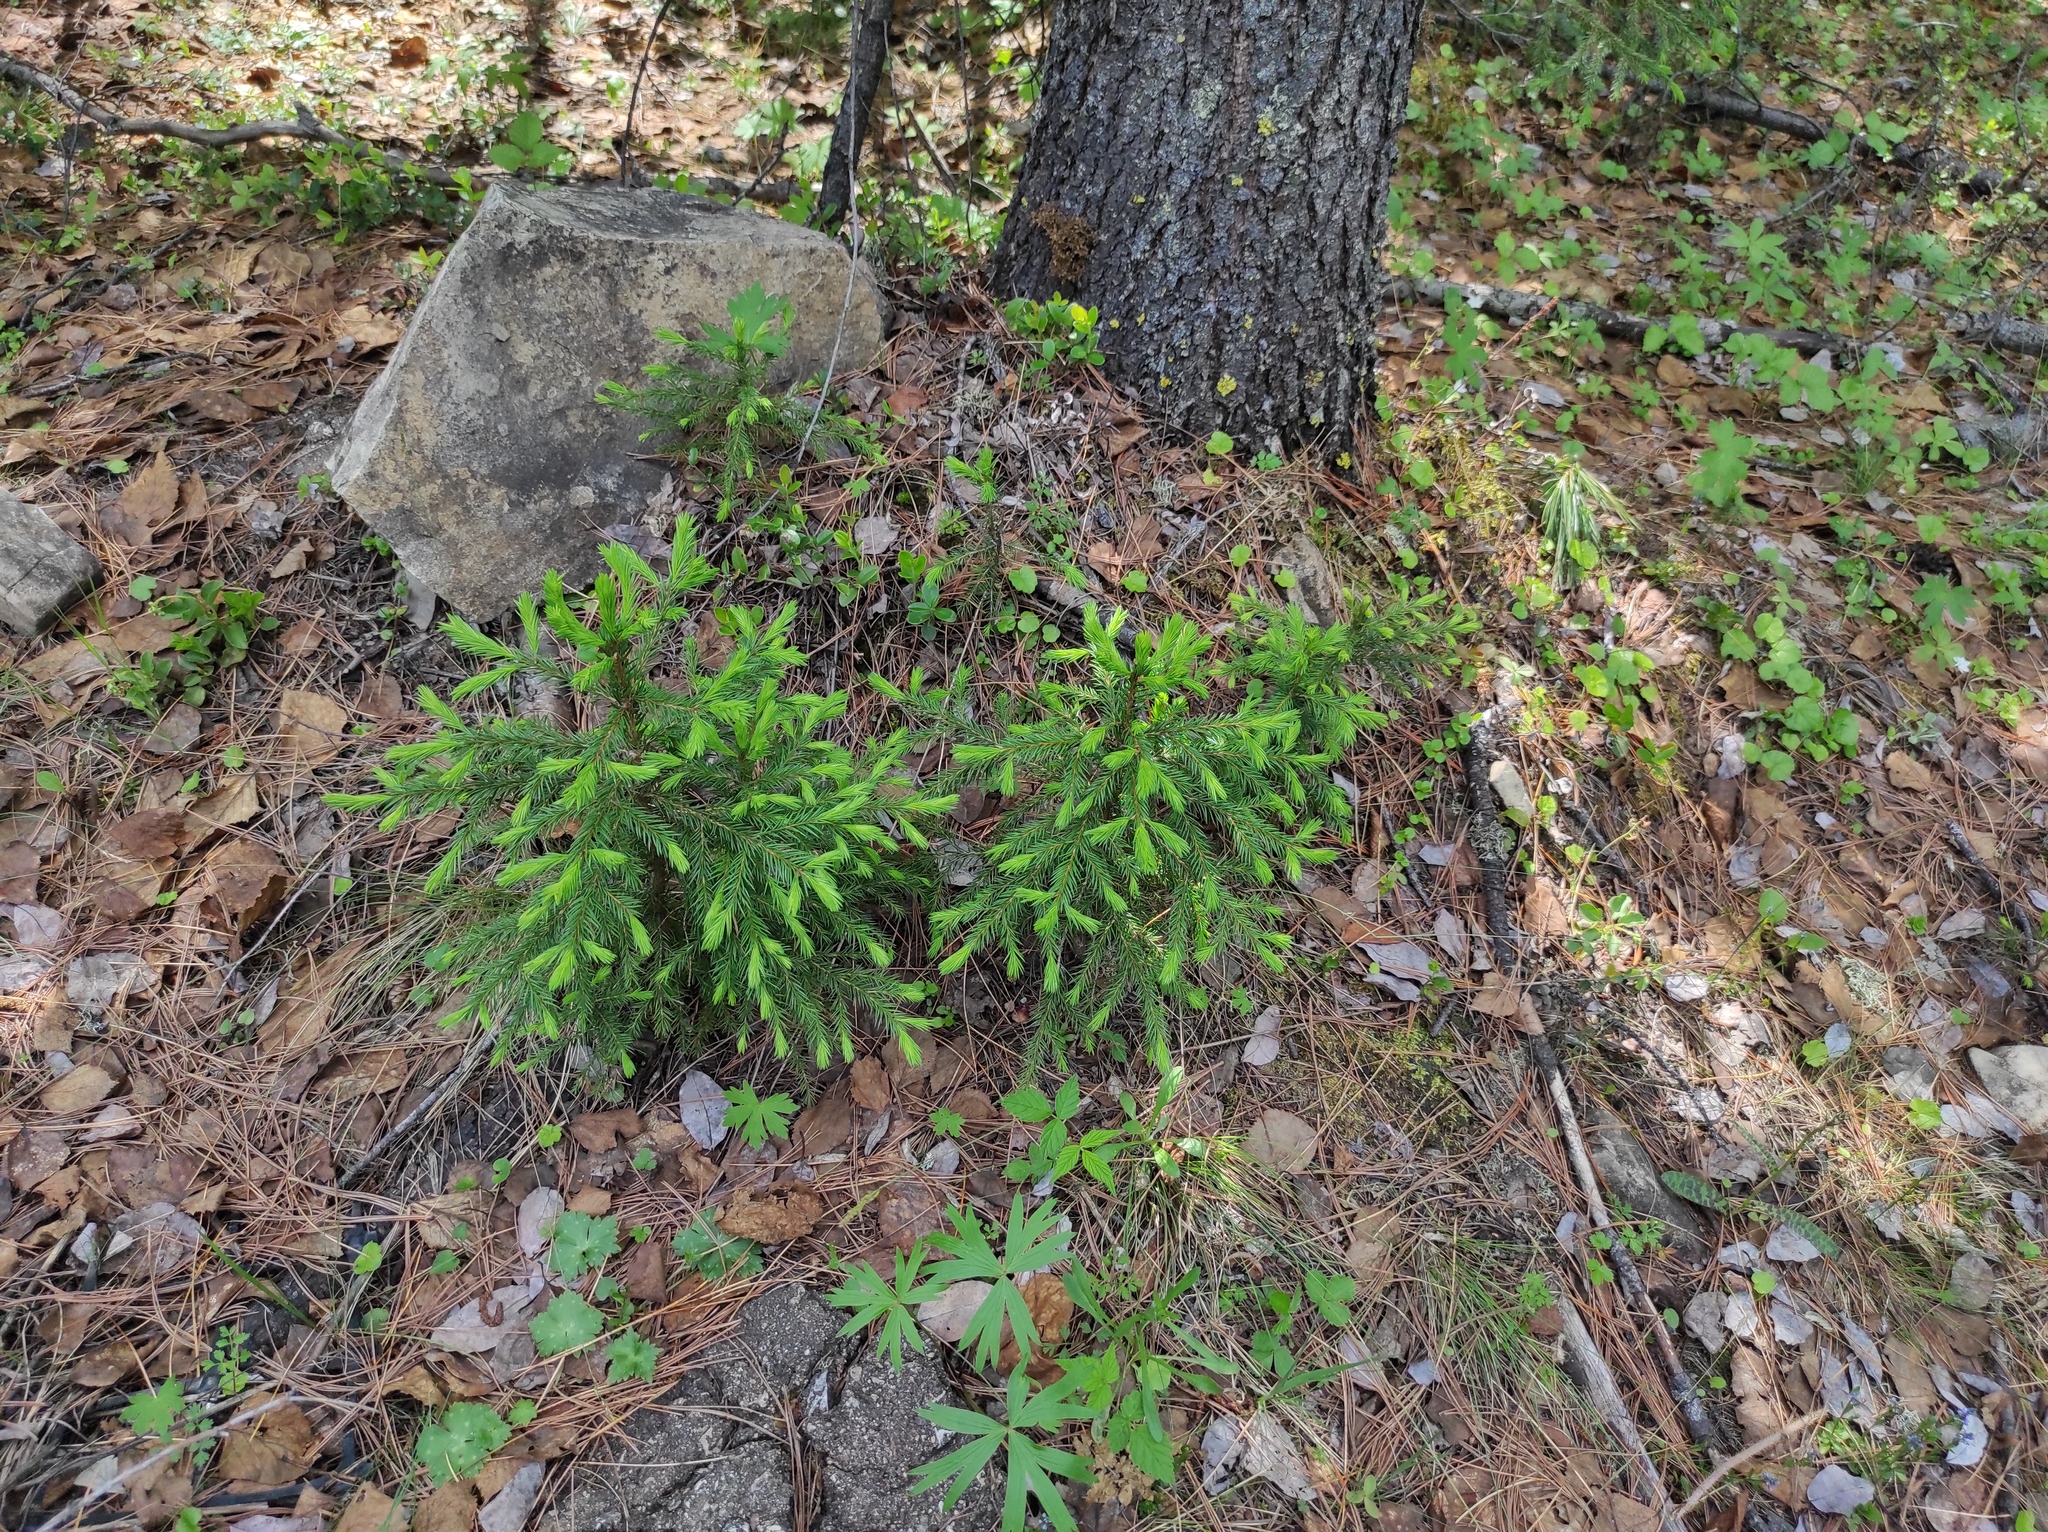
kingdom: Plantae
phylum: Tracheophyta
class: Magnoliopsida
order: Ranunculales
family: Ranunculaceae
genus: Pulsatilla
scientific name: Pulsatilla patens
